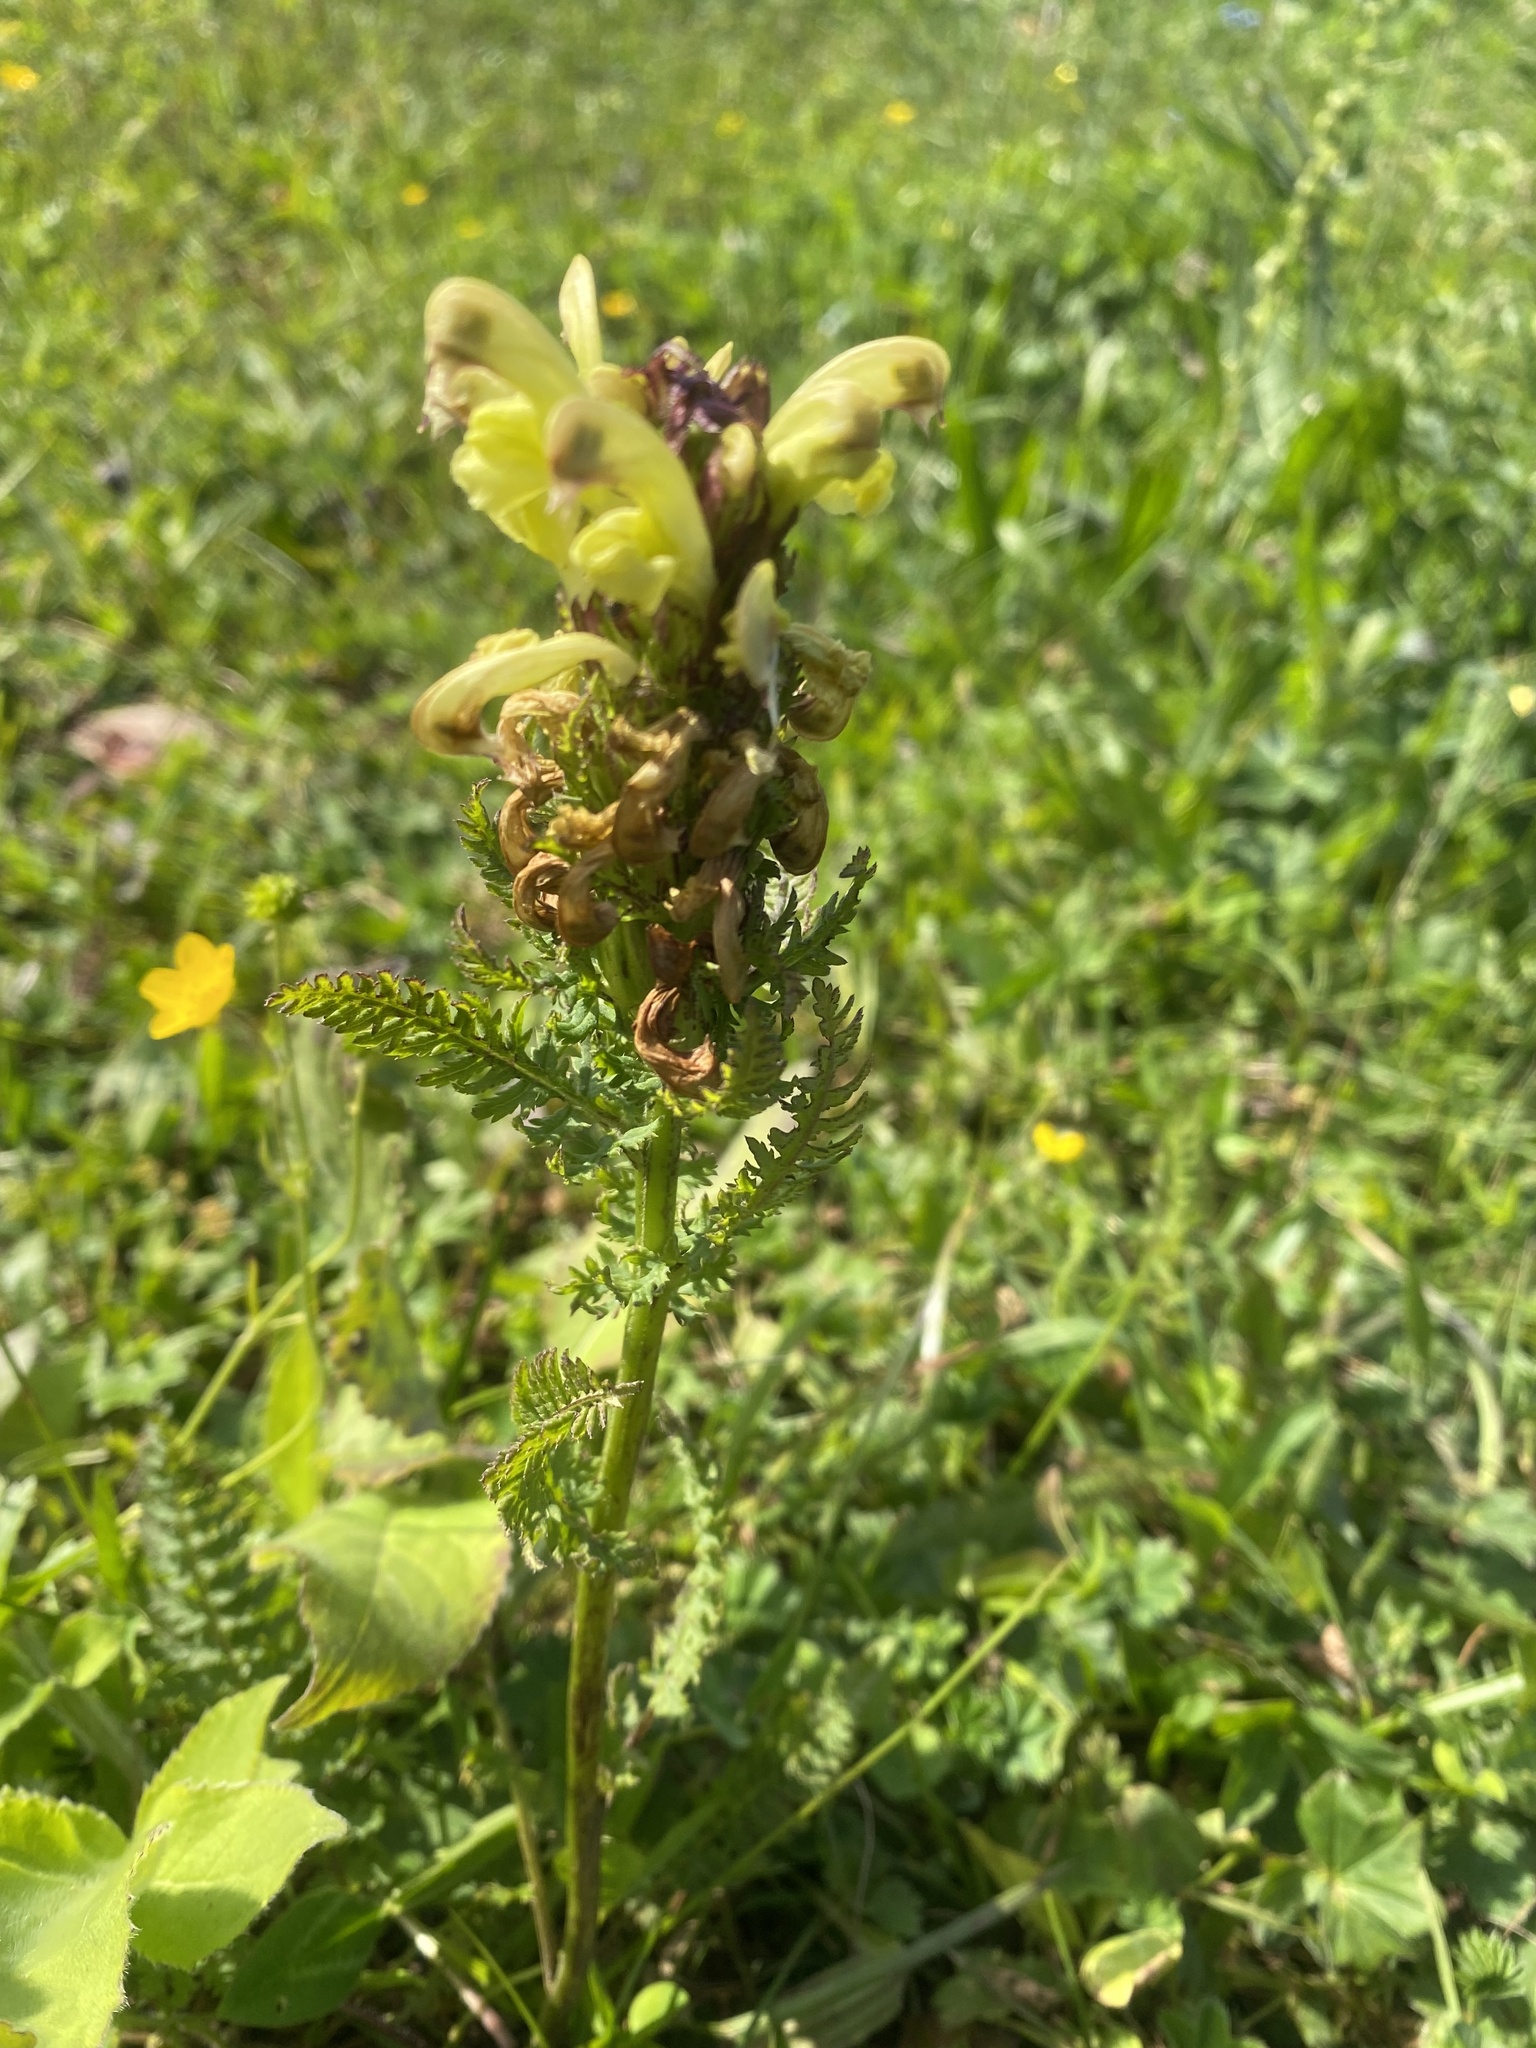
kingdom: Plantae
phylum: Tracheophyta
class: Magnoliopsida
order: Lamiales
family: Orobanchaceae
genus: Pedicularis
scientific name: Pedicularis sibthorpii
